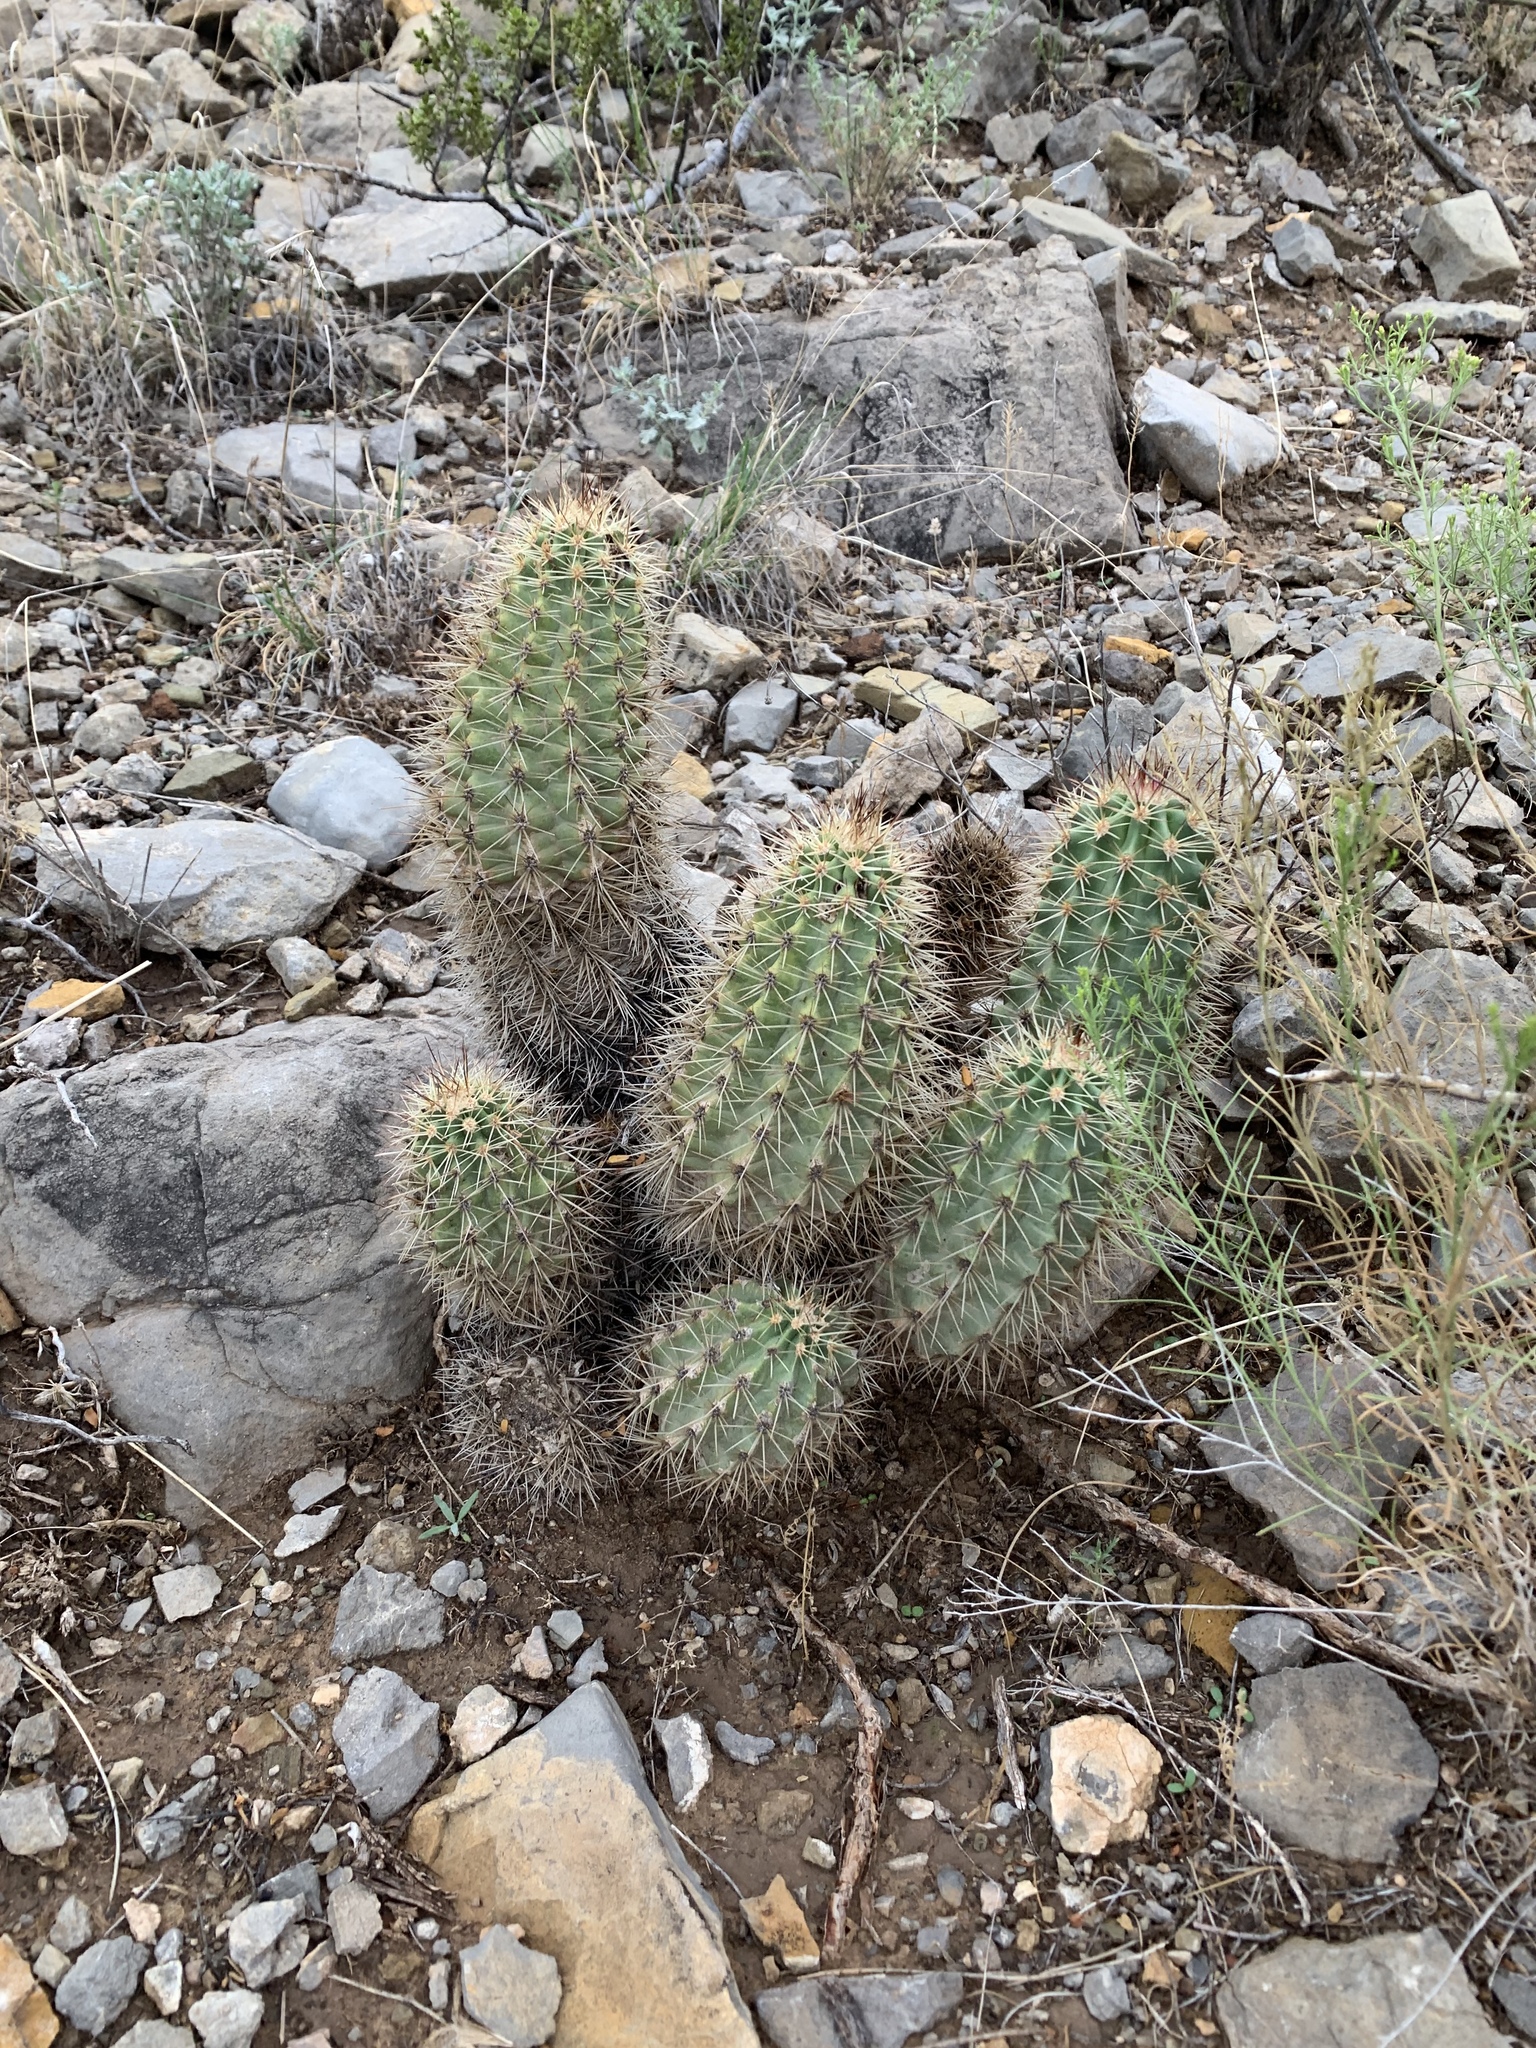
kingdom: Plantae
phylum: Tracheophyta
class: Magnoliopsida
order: Caryophyllales
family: Cactaceae
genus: Echinocereus
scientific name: Echinocereus coccineus
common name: Scarlet hedgehog cactus
